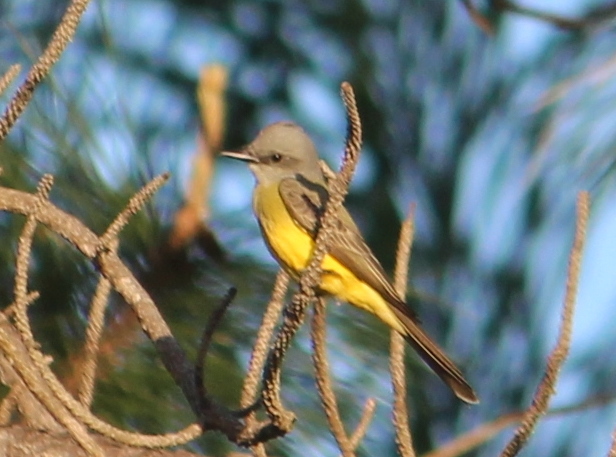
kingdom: Animalia
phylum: Chordata
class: Aves
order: Passeriformes
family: Tyrannidae
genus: Tyrannus
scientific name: Tyrannus melancholicus
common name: Tropical kingbird
